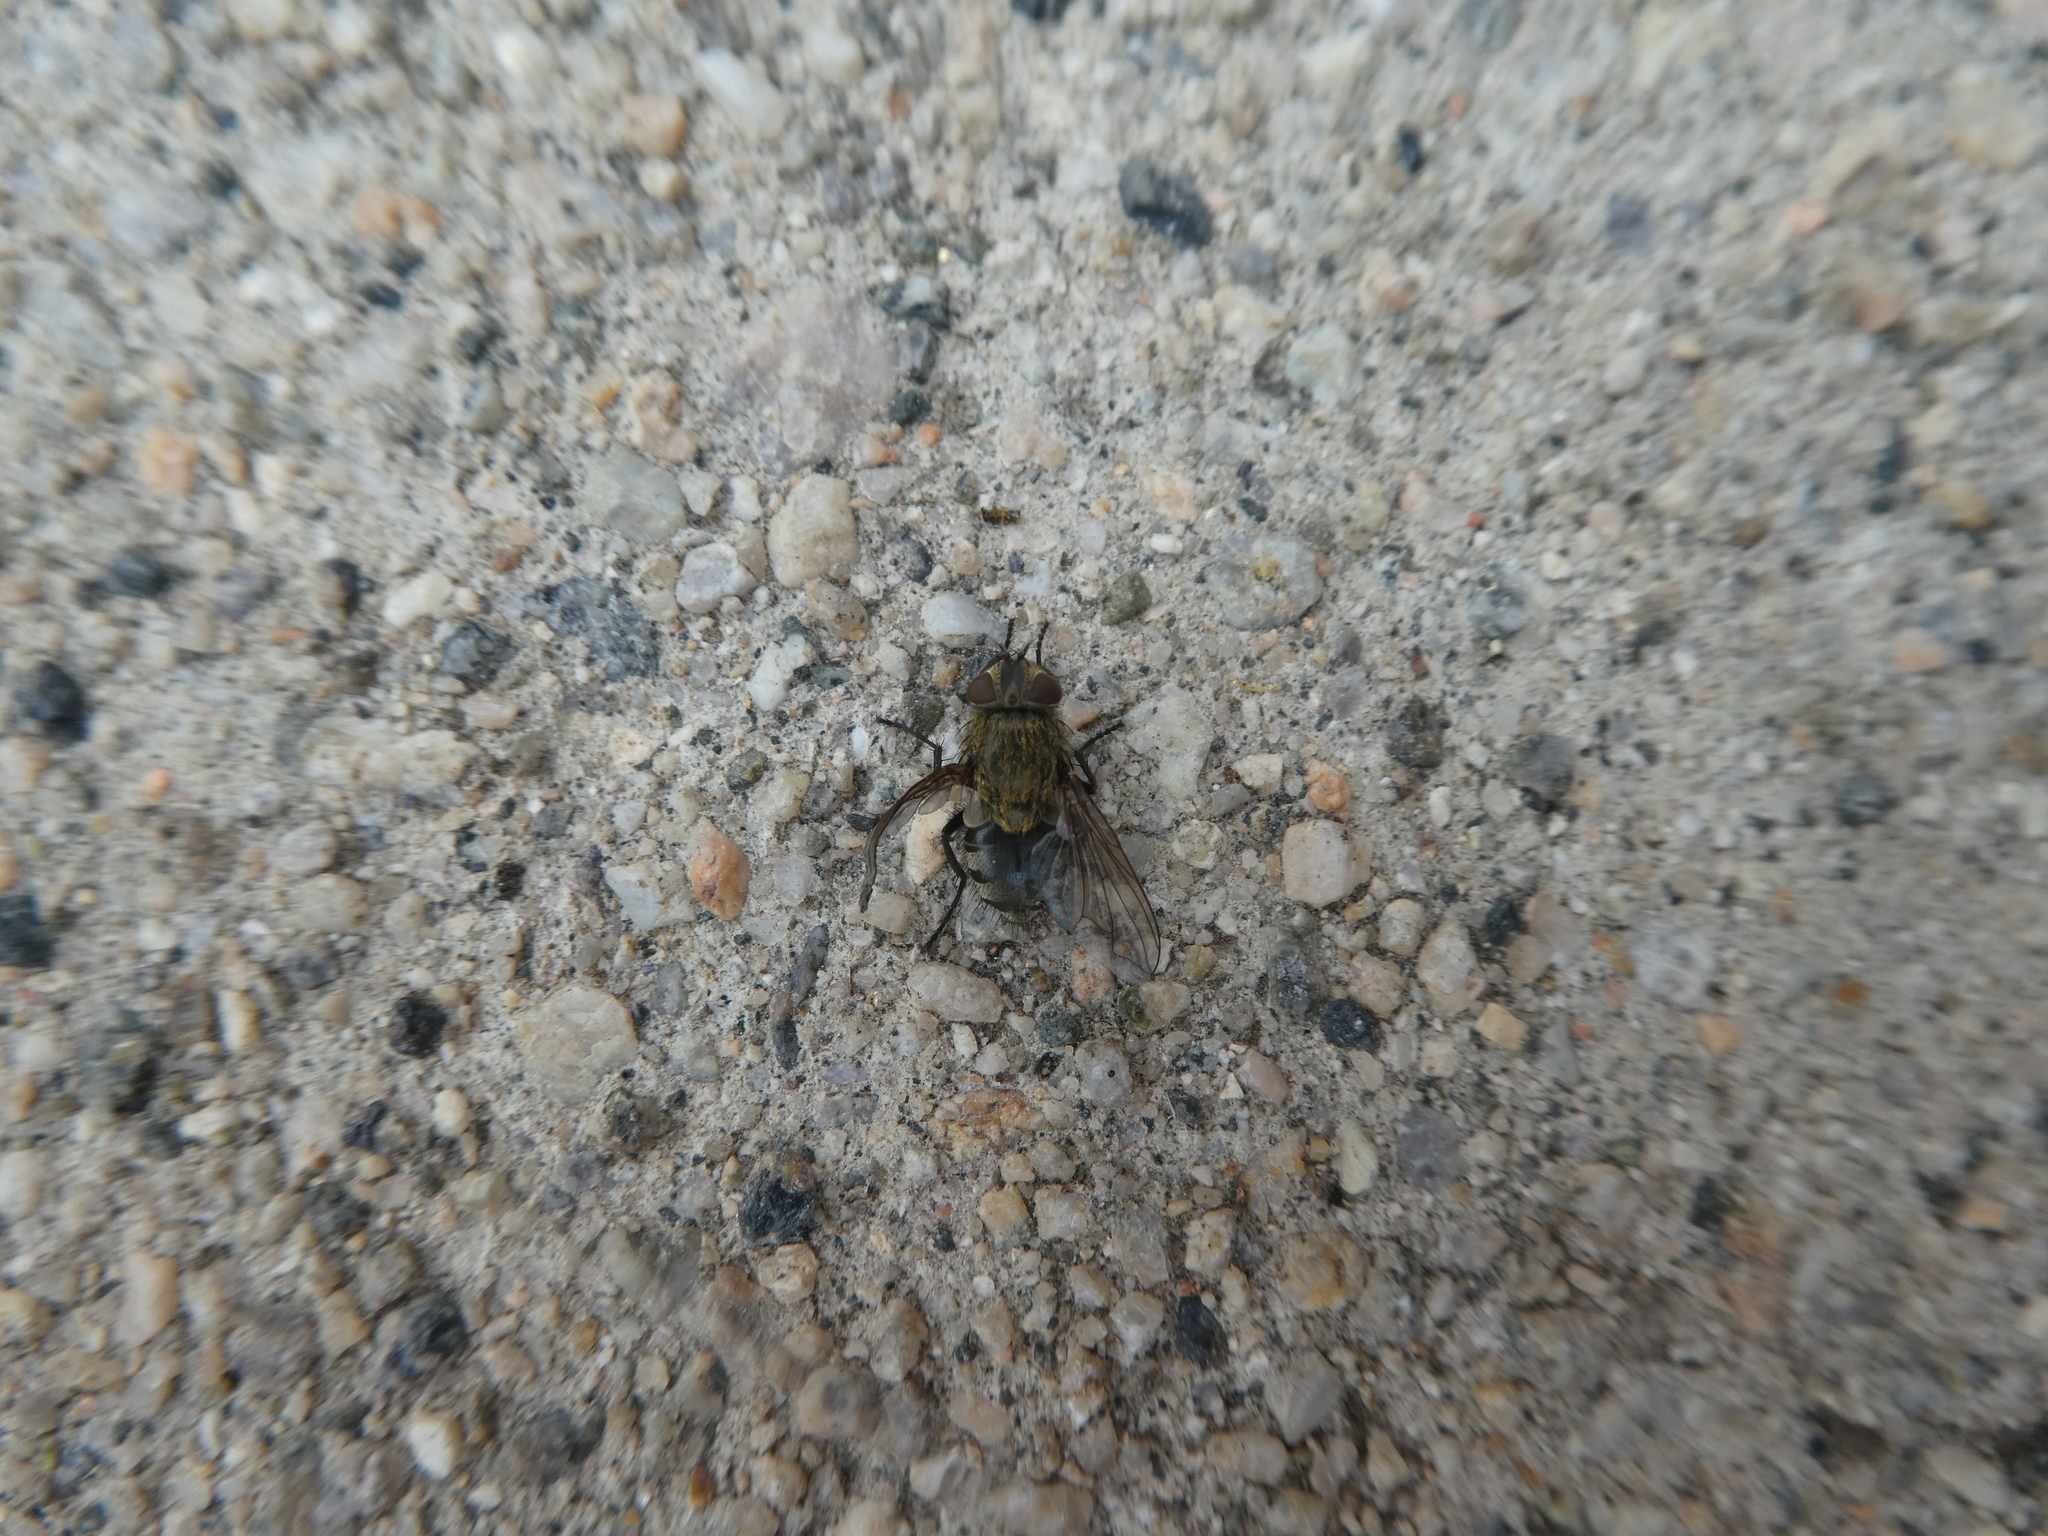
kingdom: Animalia
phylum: Arthropoda
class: Insecta
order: Diptera
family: Polleniidae
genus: Pollenia
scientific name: Pollenia
